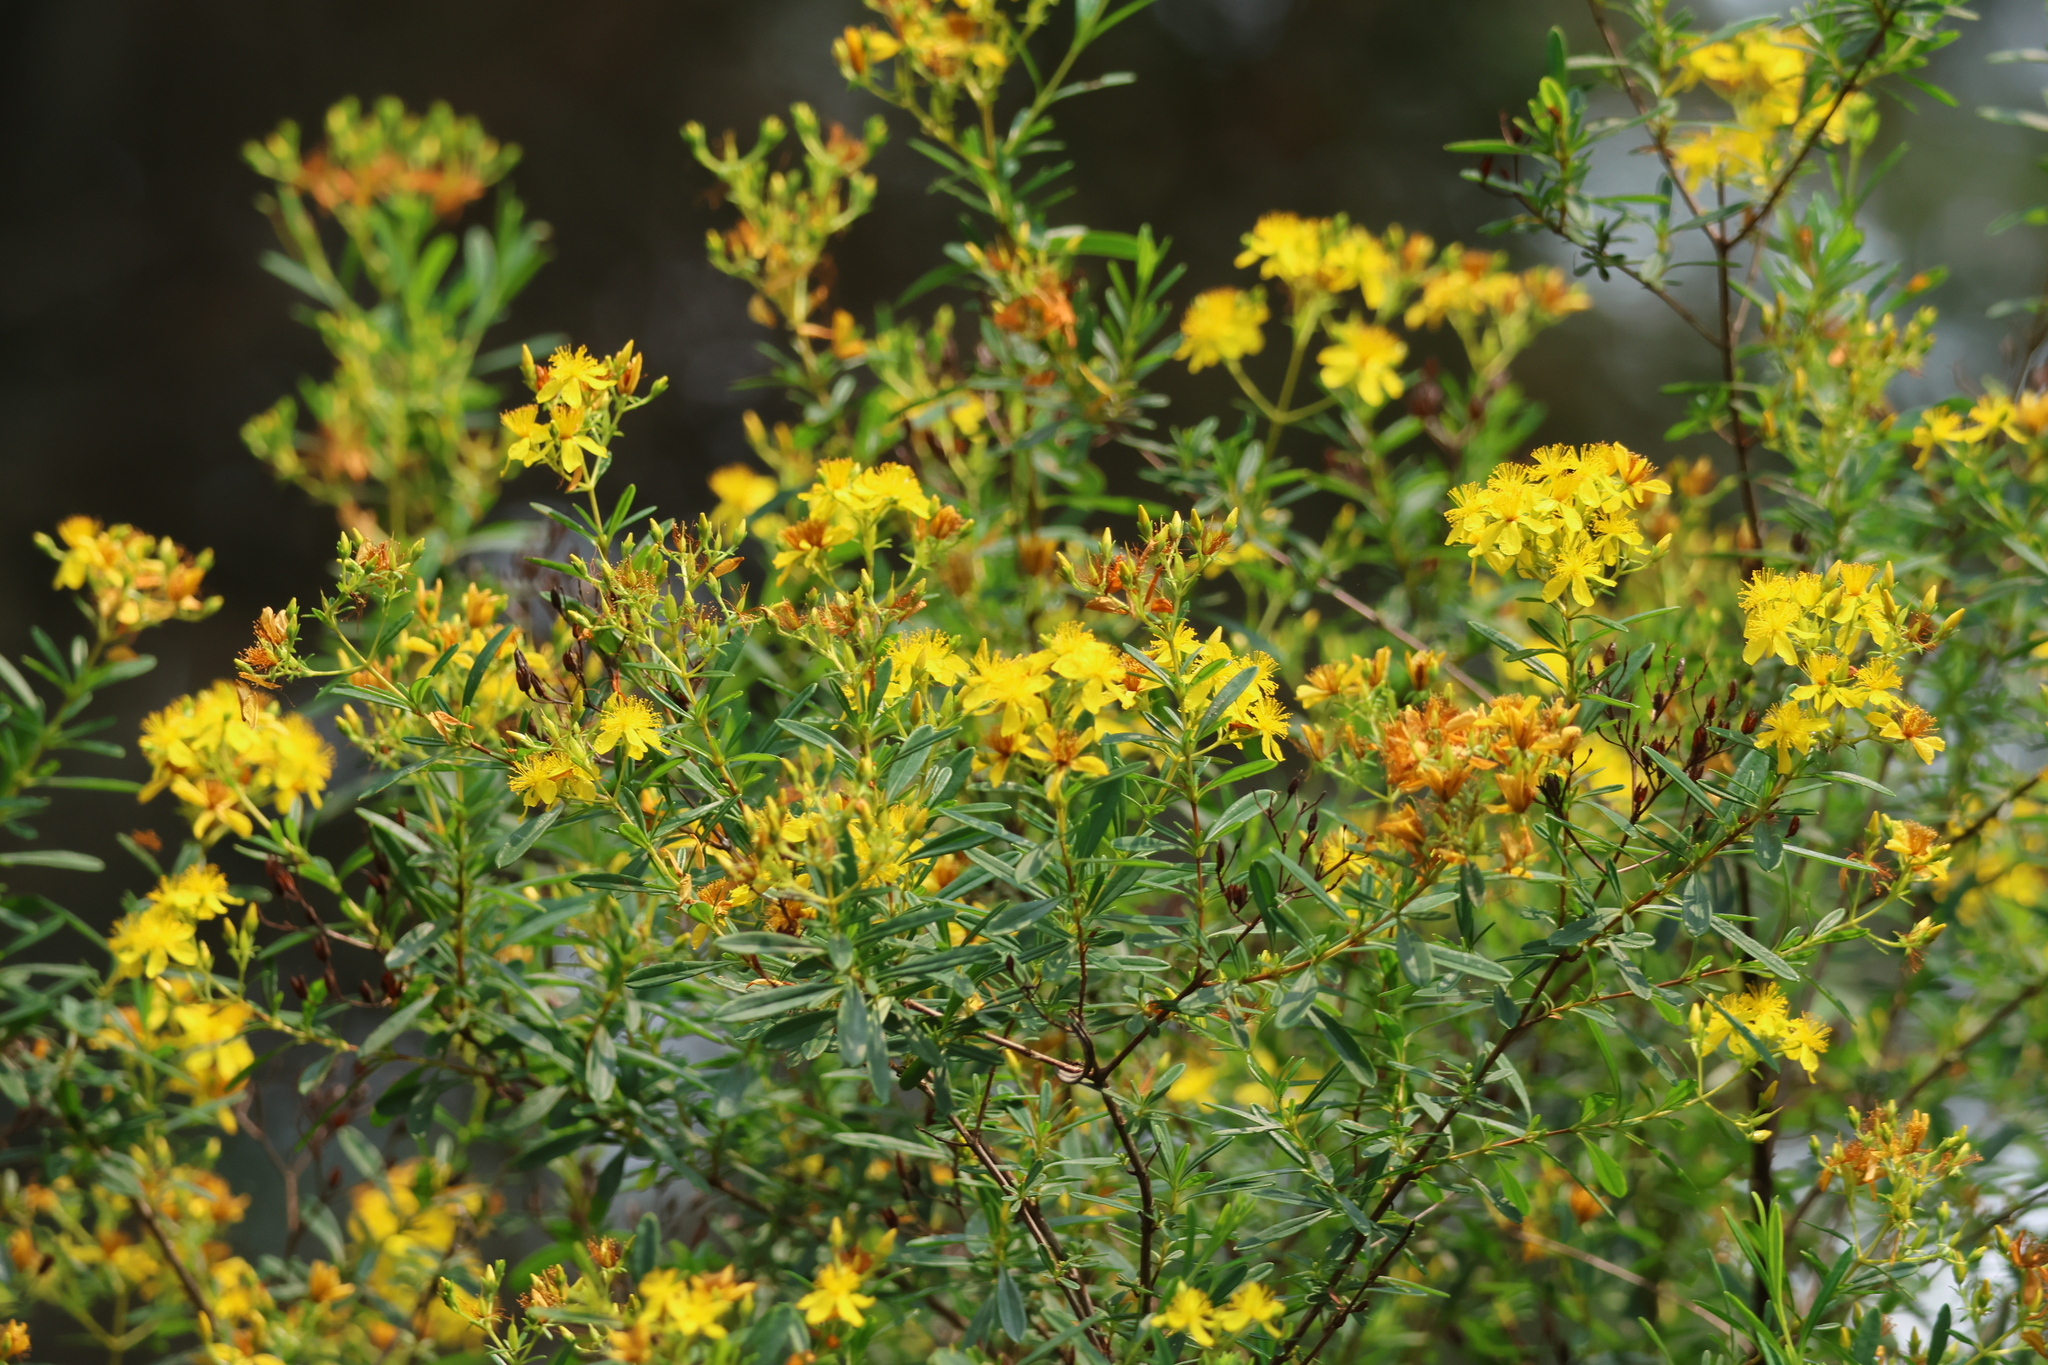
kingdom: Plantae
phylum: Tracheophyta
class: Magnoliopsida
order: Malpighiales
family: Hypericaceae
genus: Hypericum
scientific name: Hypericum densiflorum
